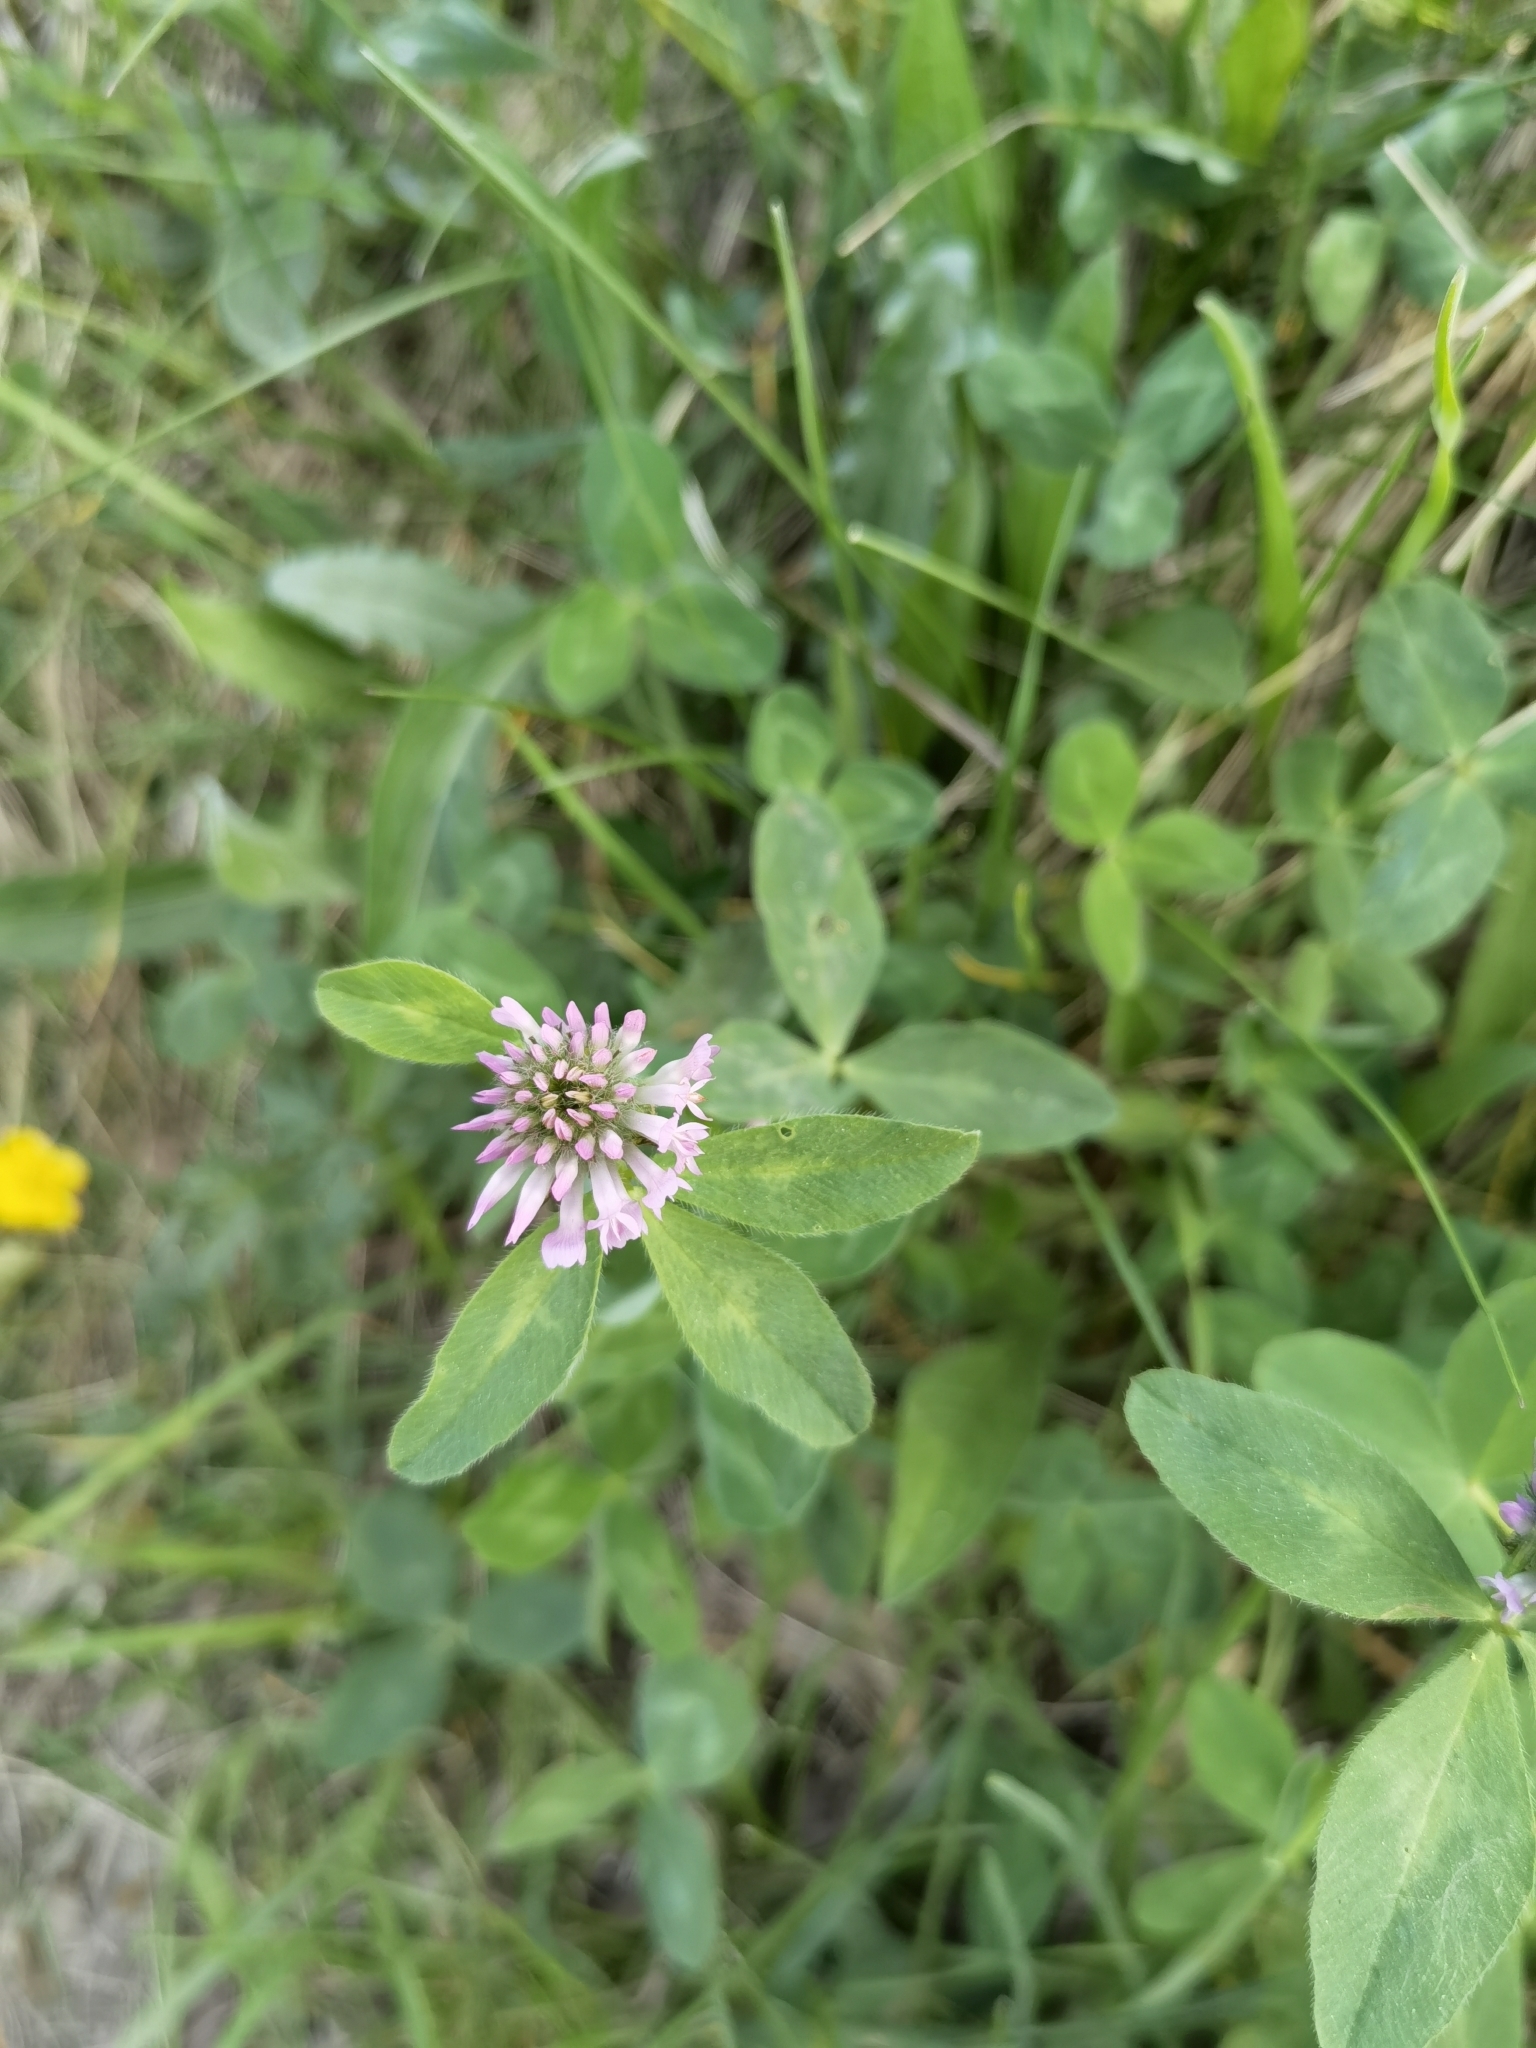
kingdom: Plantae
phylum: Tracheophyta
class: Magnoliopsida
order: Fabales
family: Fabaceae
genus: Trifolium
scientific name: Trifolium pratense
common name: Red clover
